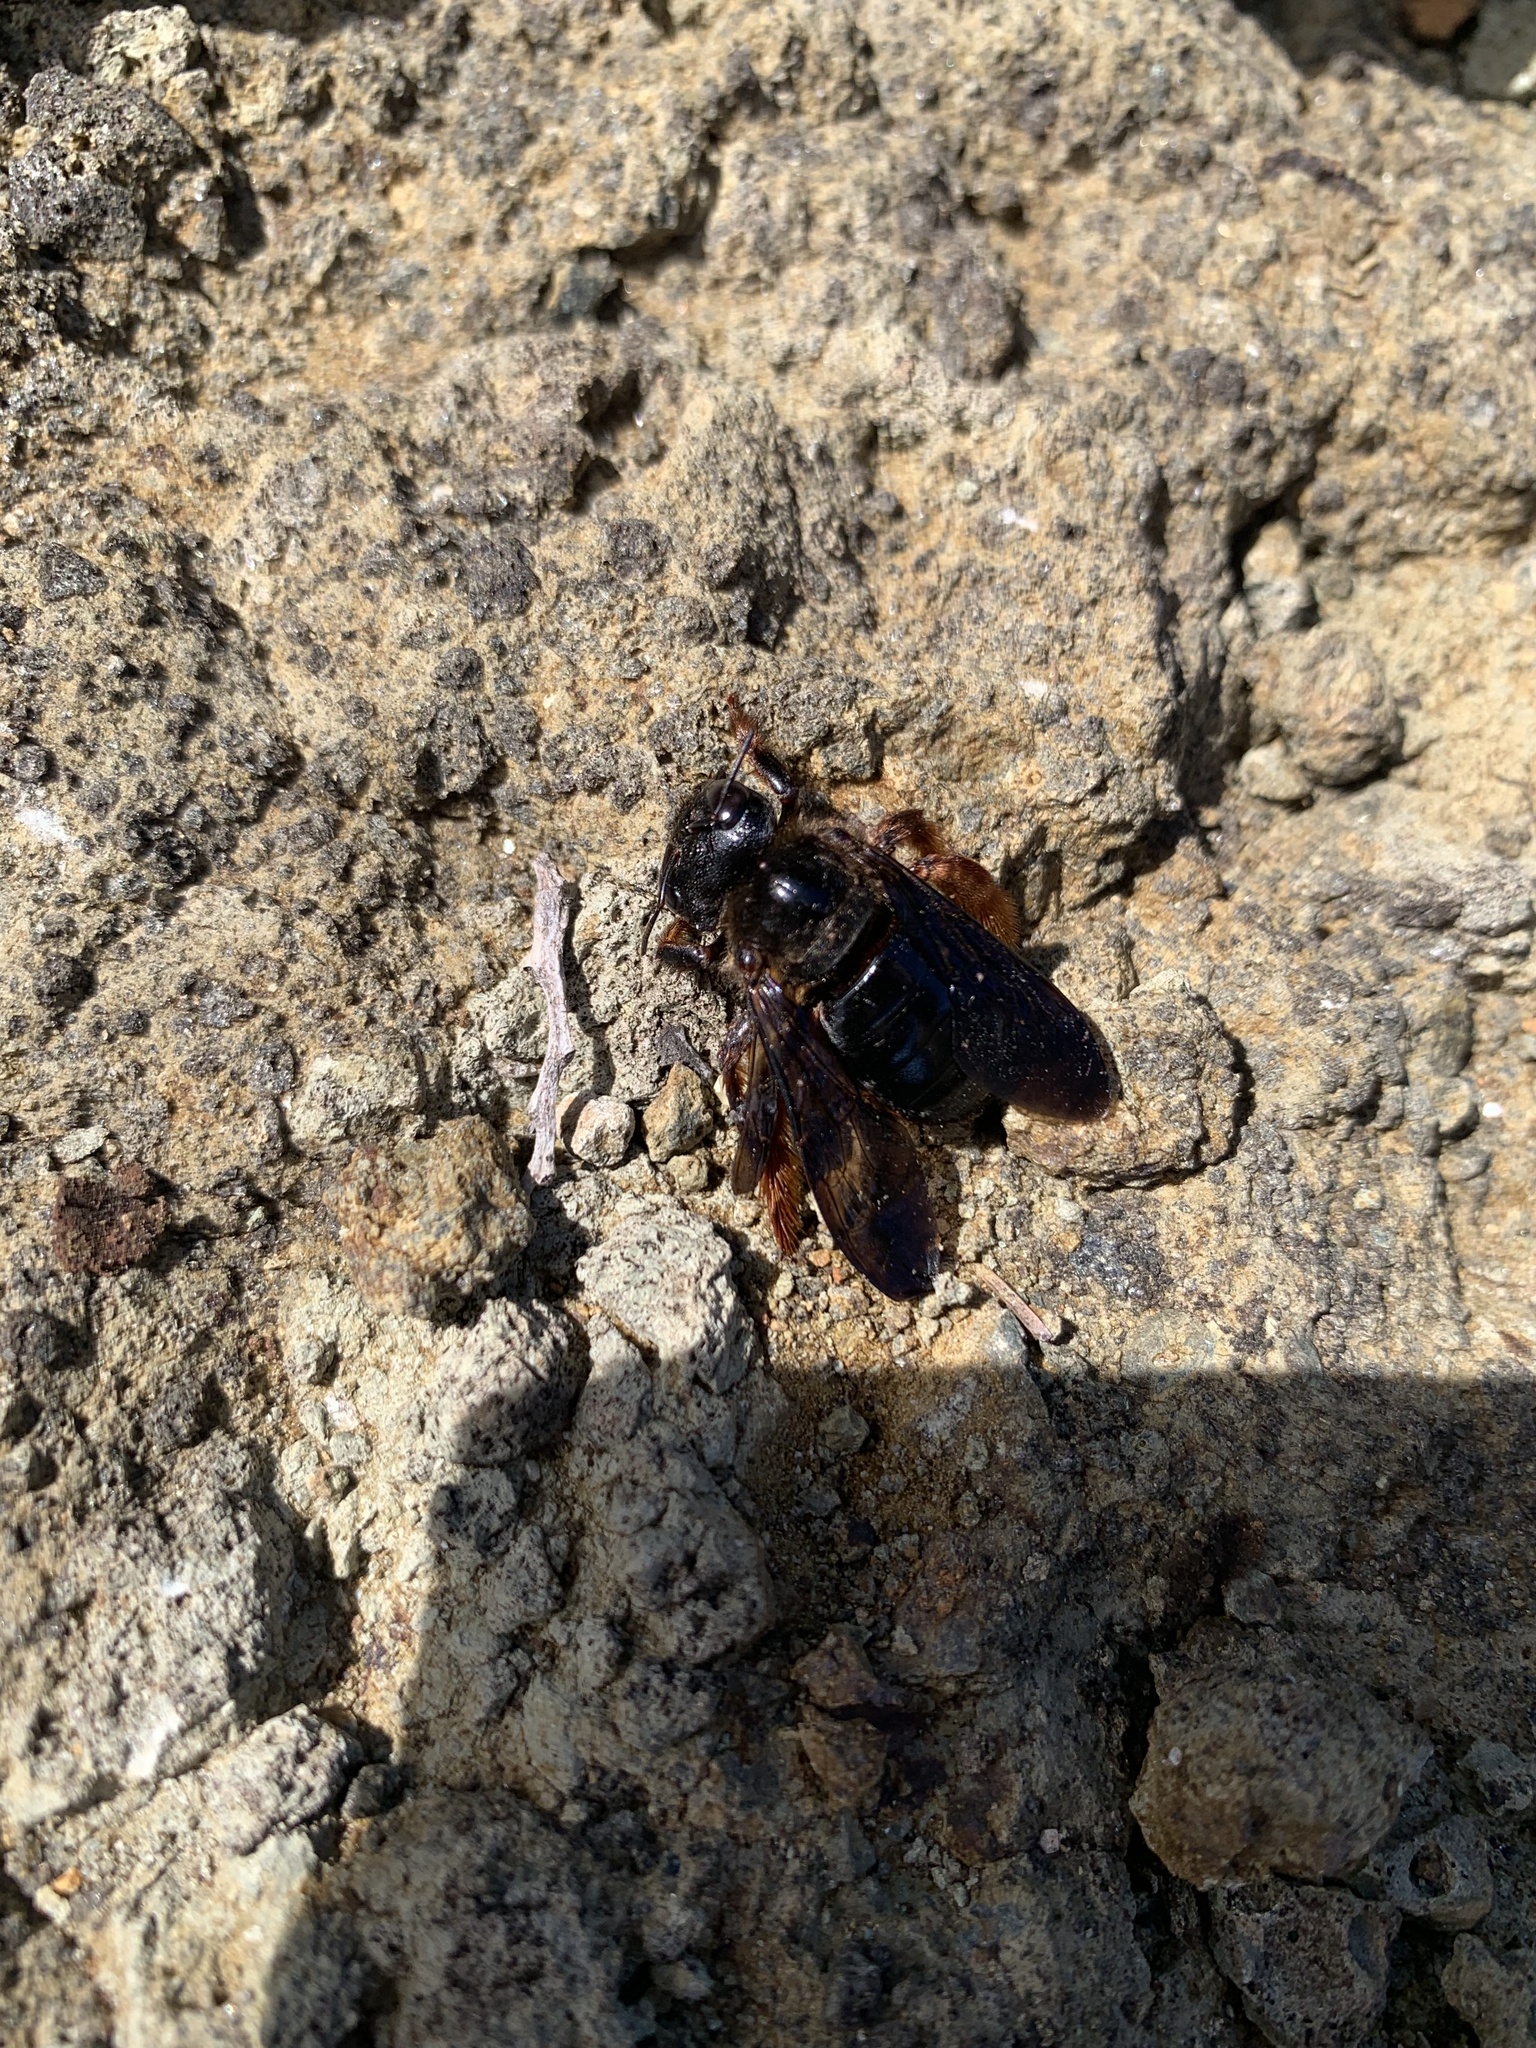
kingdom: Animalia
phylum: Arthropoda
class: Insecta
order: Hymenoptera
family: Apidae
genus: Xylocopa
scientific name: Xylocopa ogasawarensis
